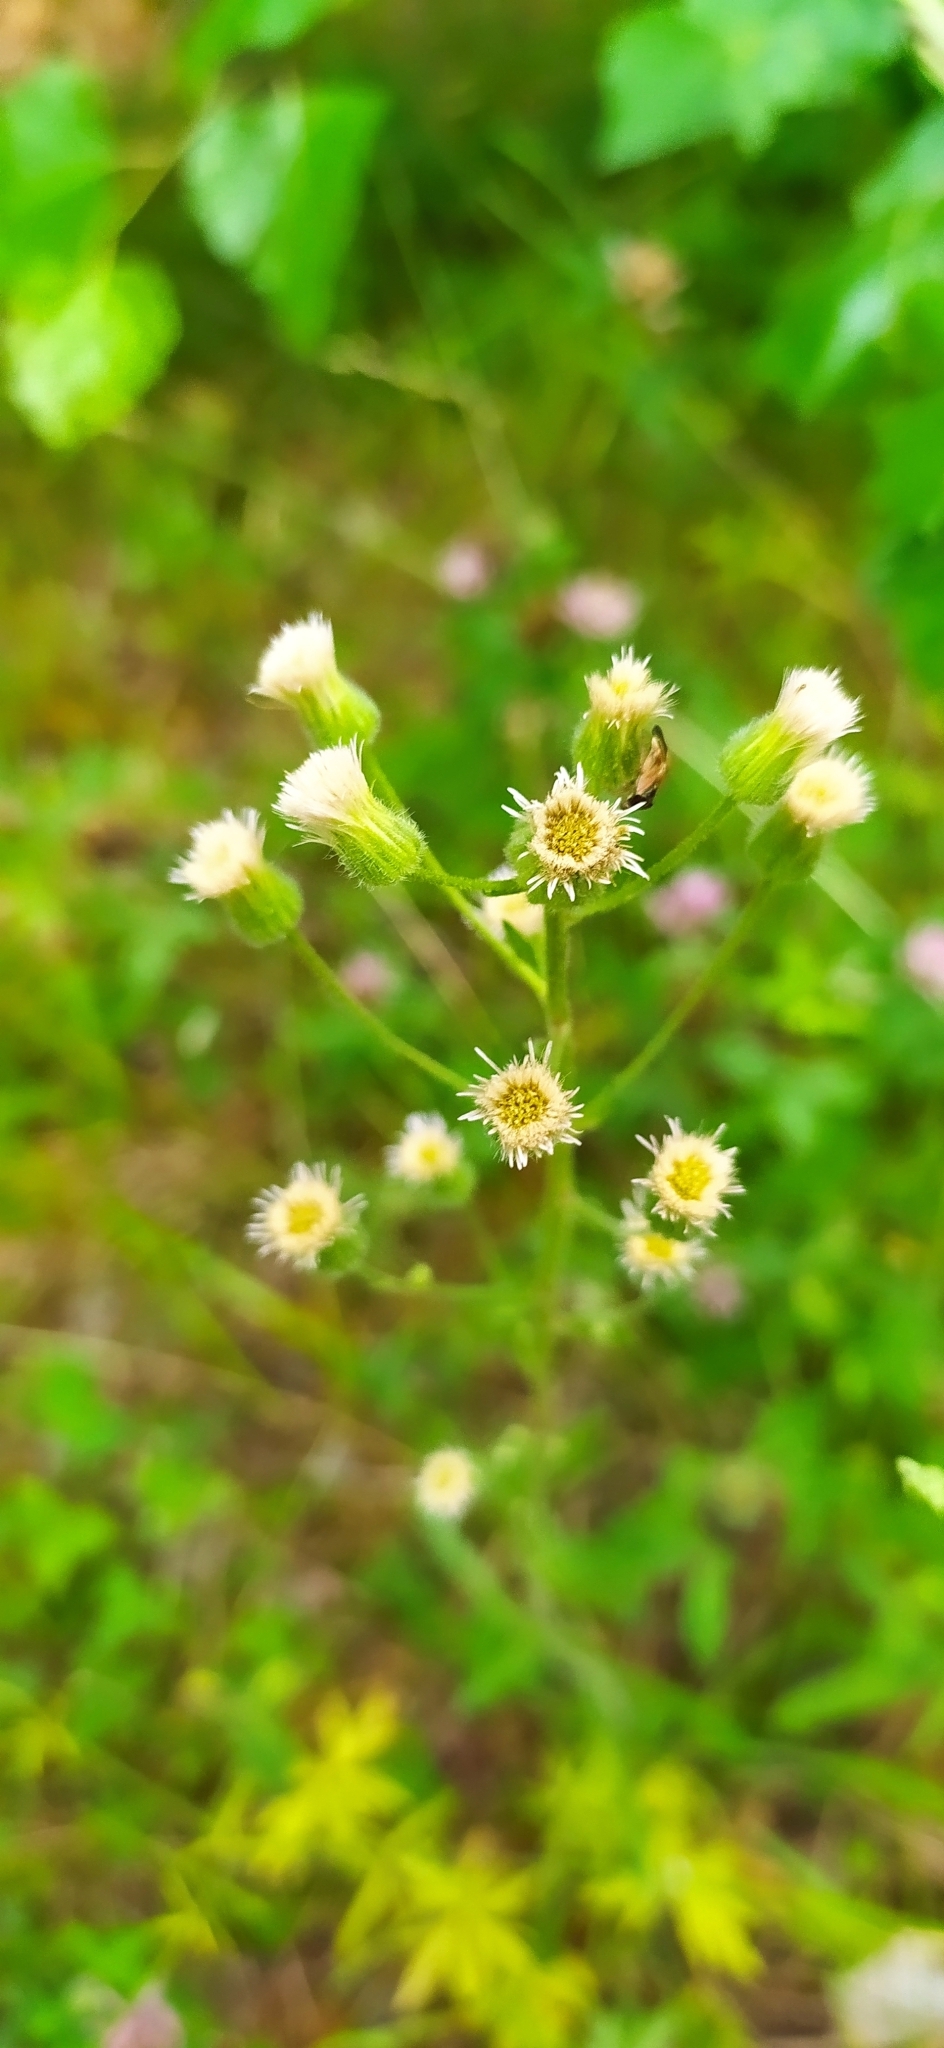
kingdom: Plantae
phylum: Tracheophyta
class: Magnoliopsida
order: Asterales
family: Asteraceae
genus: Erigeron
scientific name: Erigeron acris
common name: Blue fleabane
